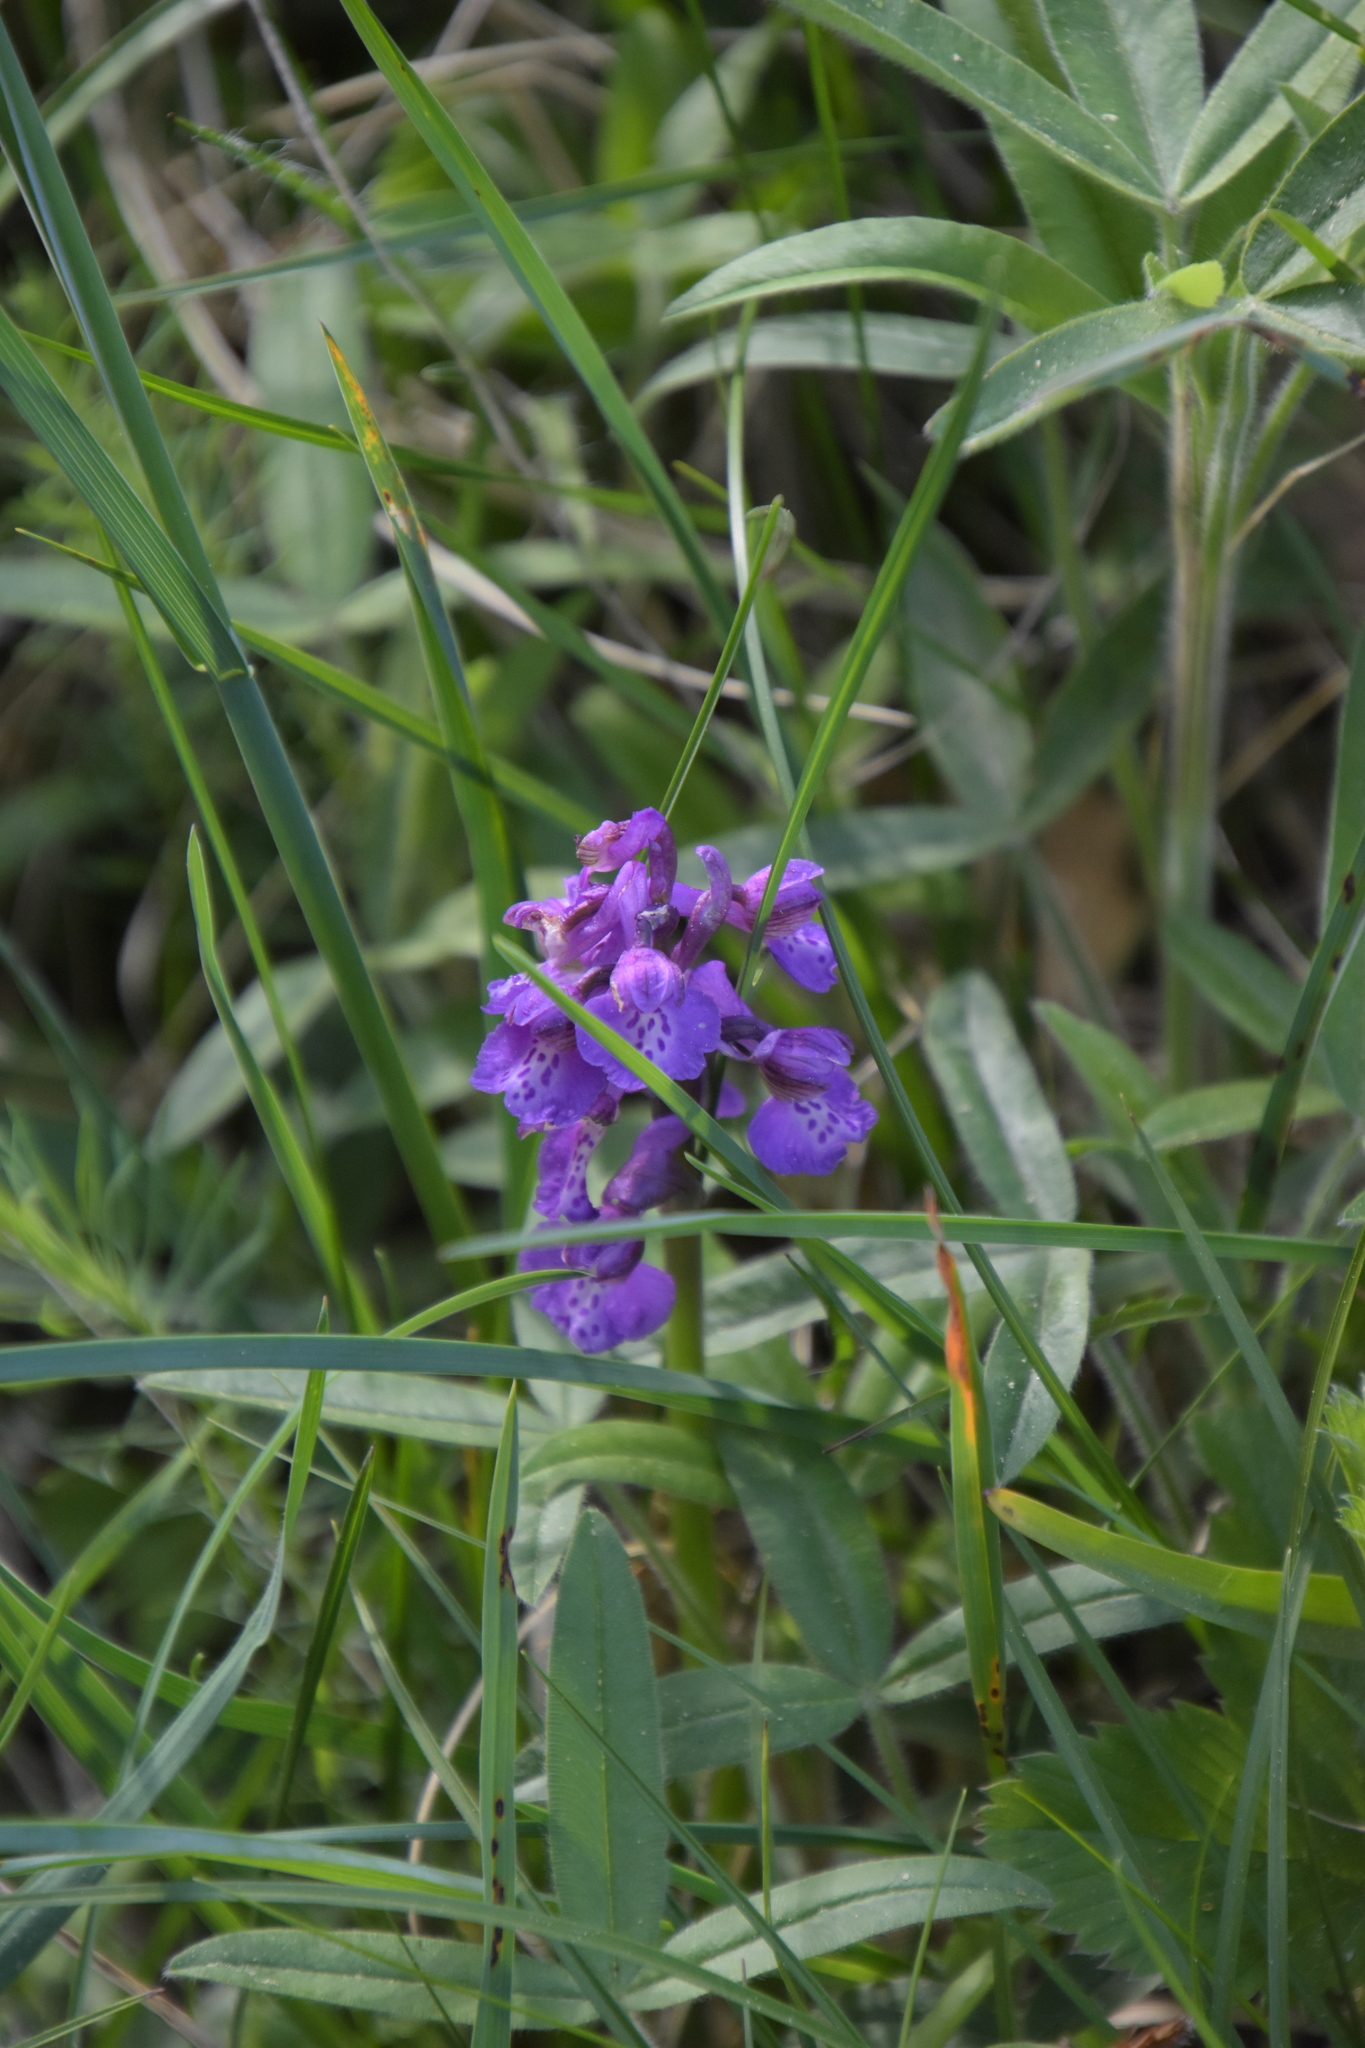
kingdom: Plantae
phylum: Tracheophyta
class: Liliopsida
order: Asparagales
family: Orchidaceae
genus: Anacamptis
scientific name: Anacamptis morio
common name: Green-winged orchid
